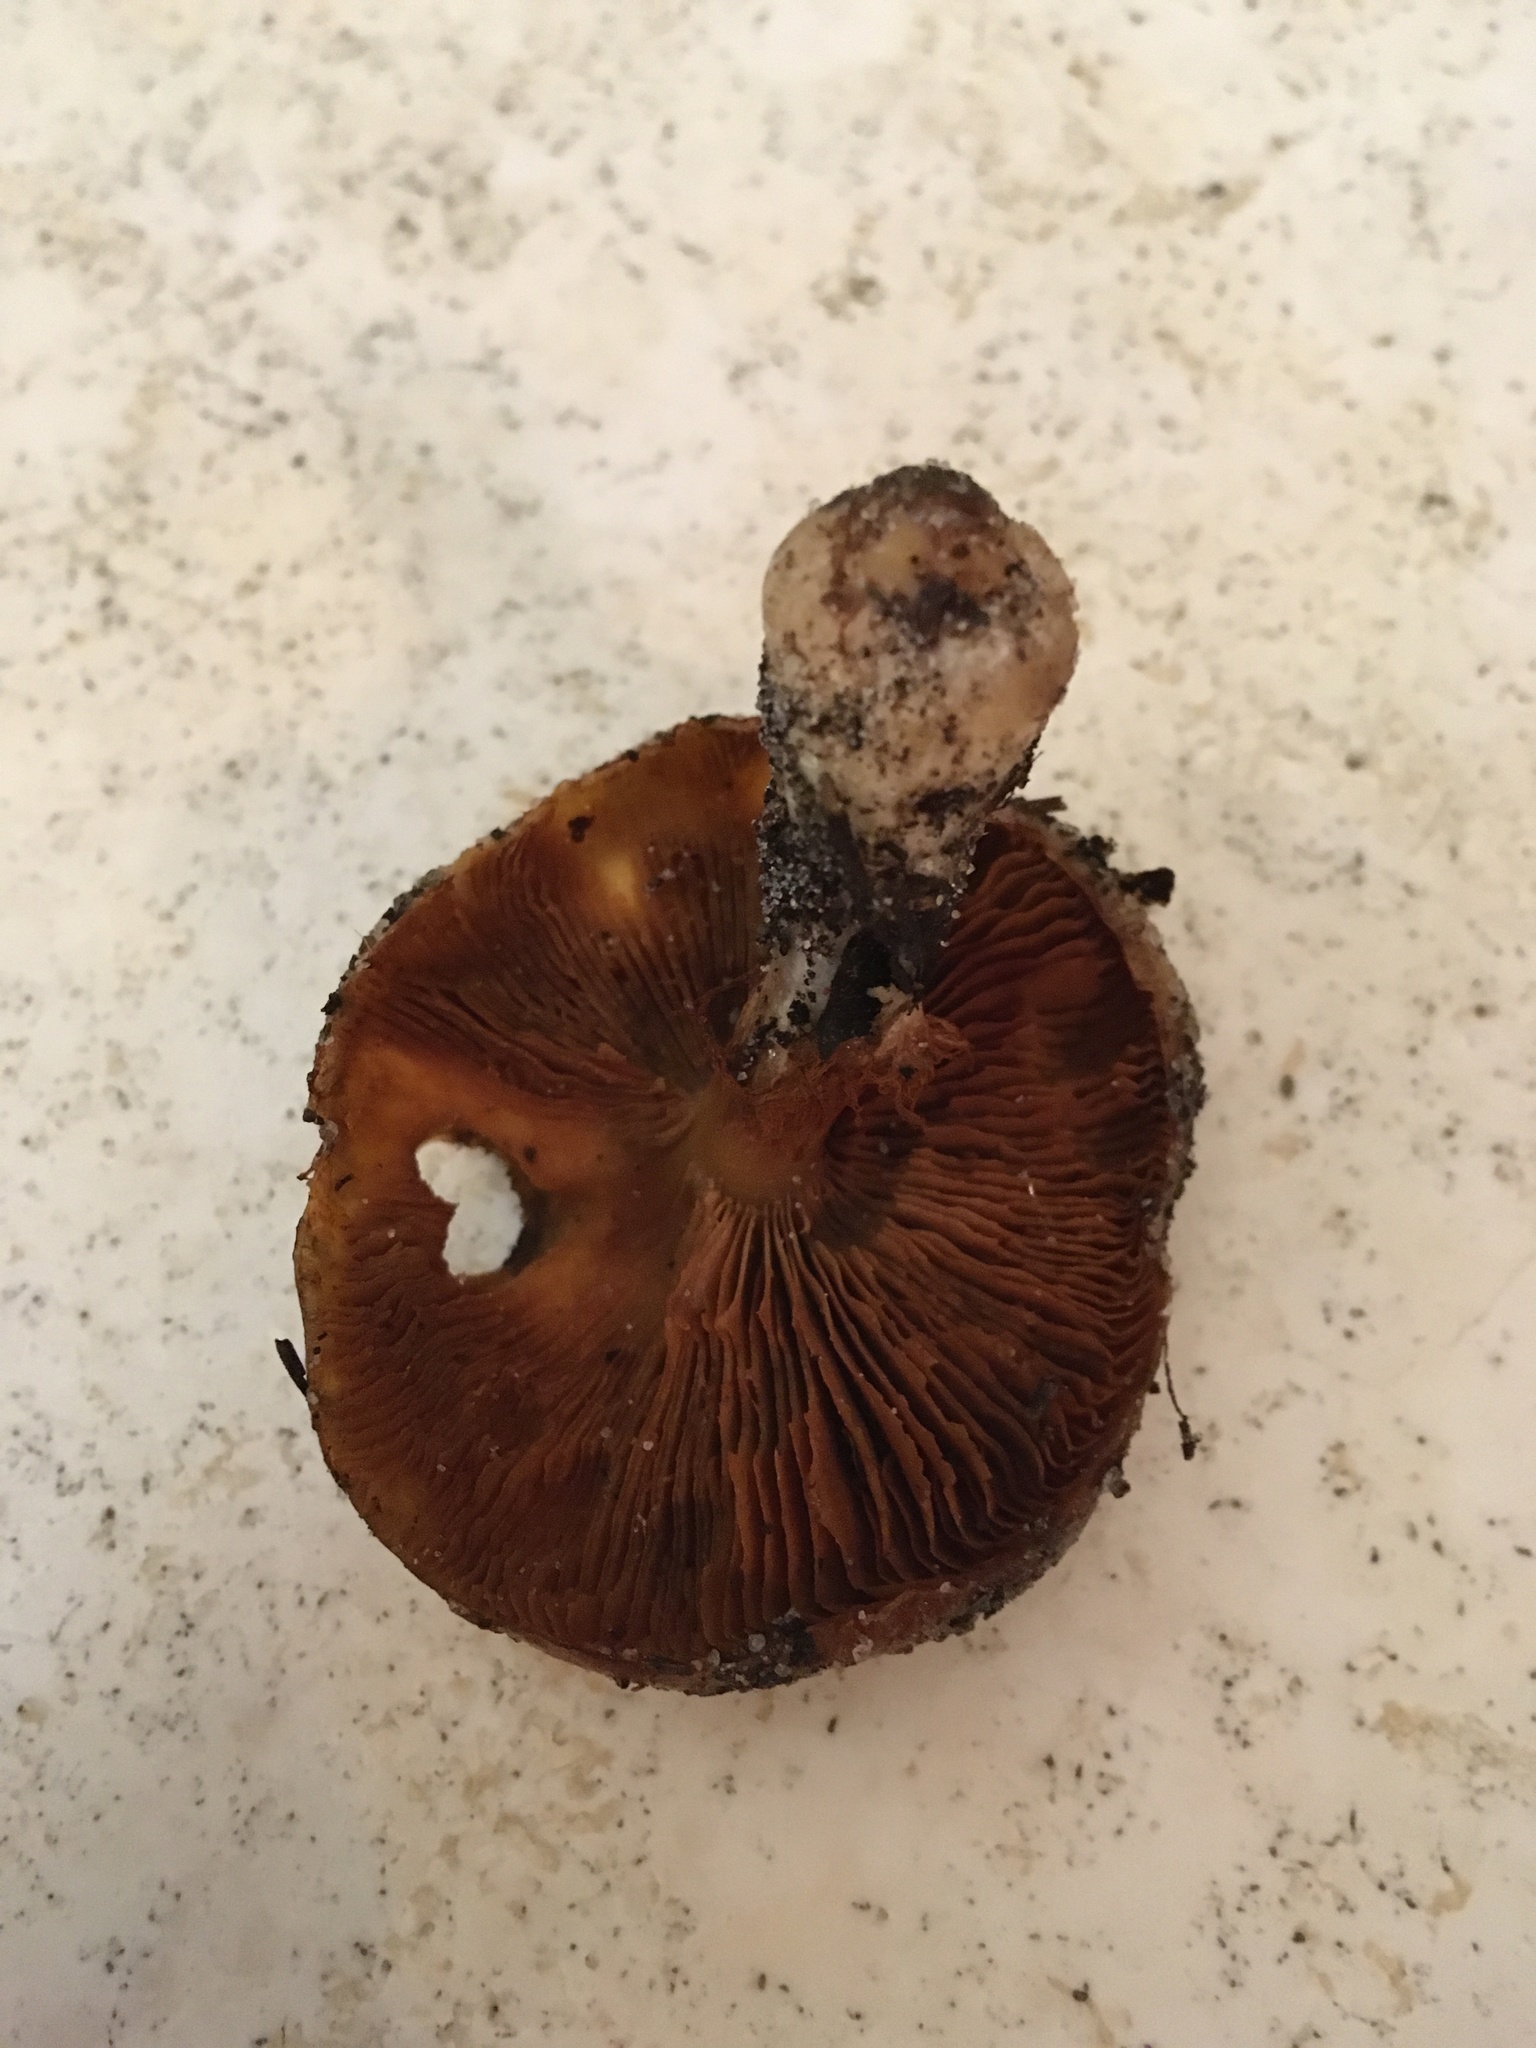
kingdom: Fungi
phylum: Basidiomycota
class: Agaricomycetes
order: Agaricales
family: Cortinariaceae
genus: Cortinarius
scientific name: Cortinarius mucosus
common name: Orange webcap
